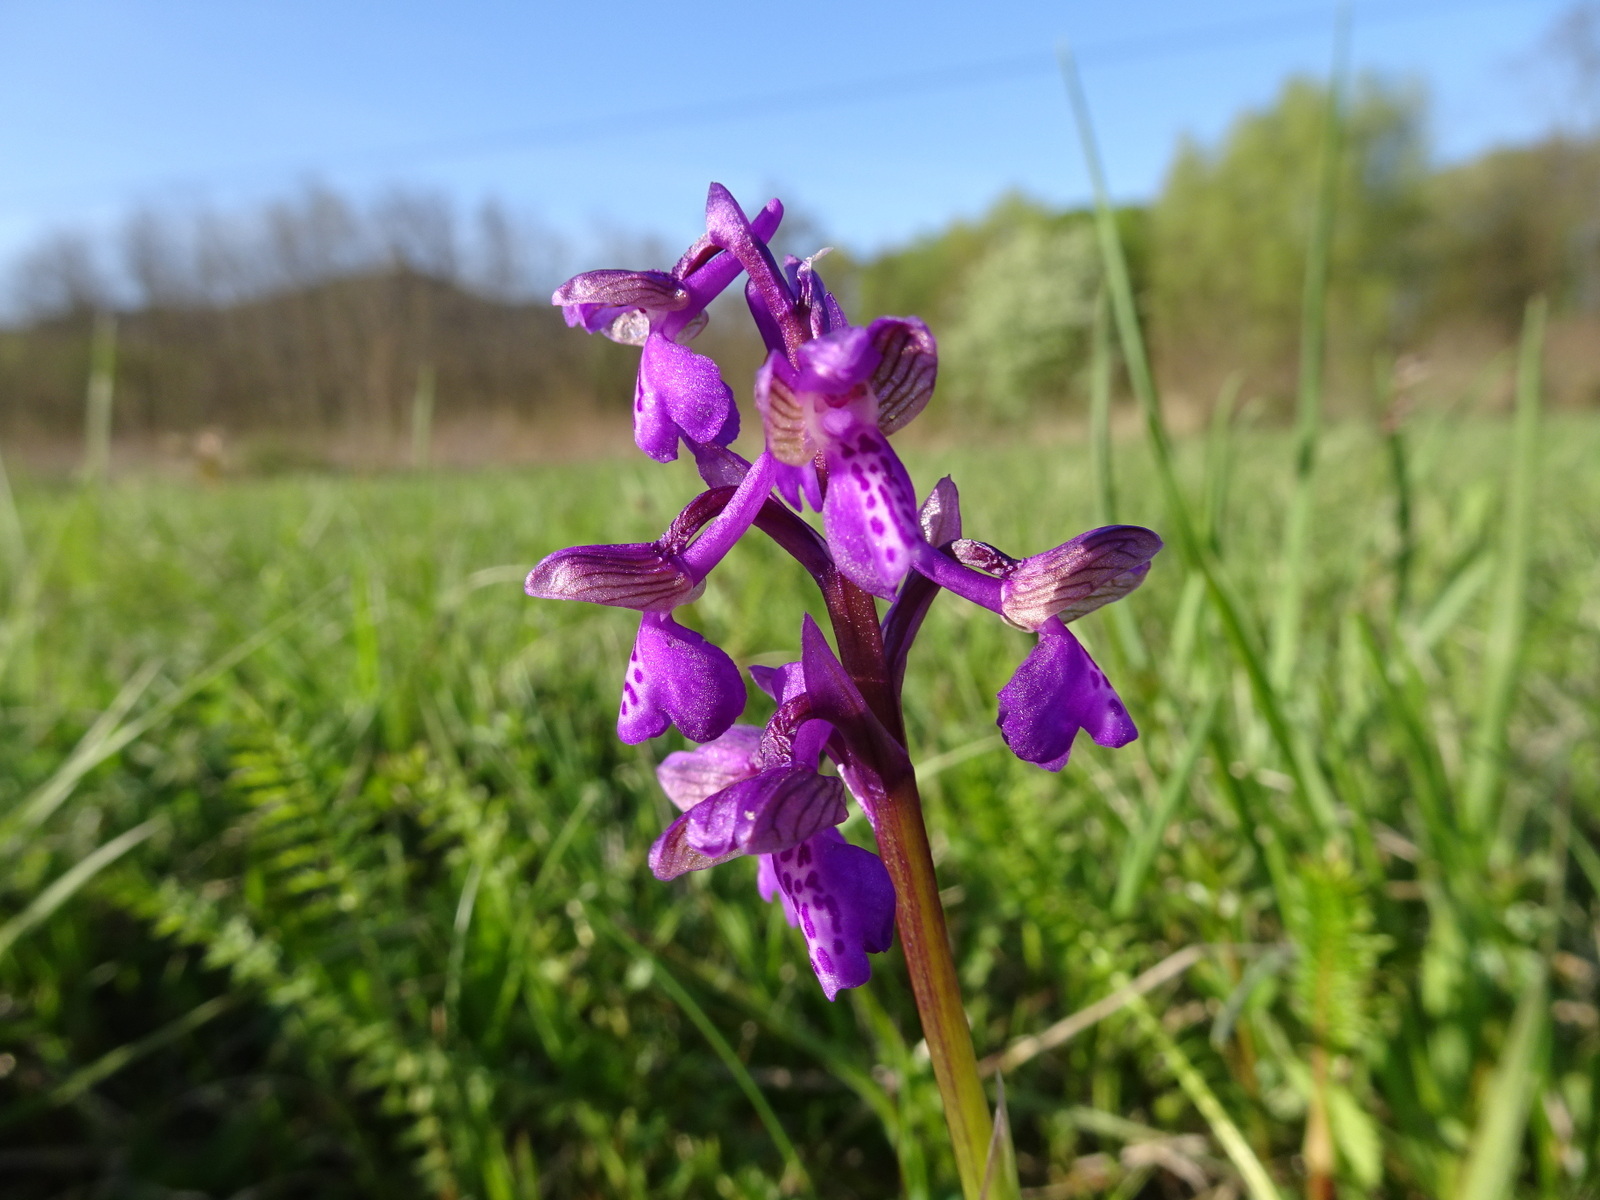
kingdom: Plantae
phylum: Tracheophyta
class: Liliopsida
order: Asparagales
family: Orchidaceae
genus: Anacamptis
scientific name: Anacamptis morio
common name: Green-winged orchid
